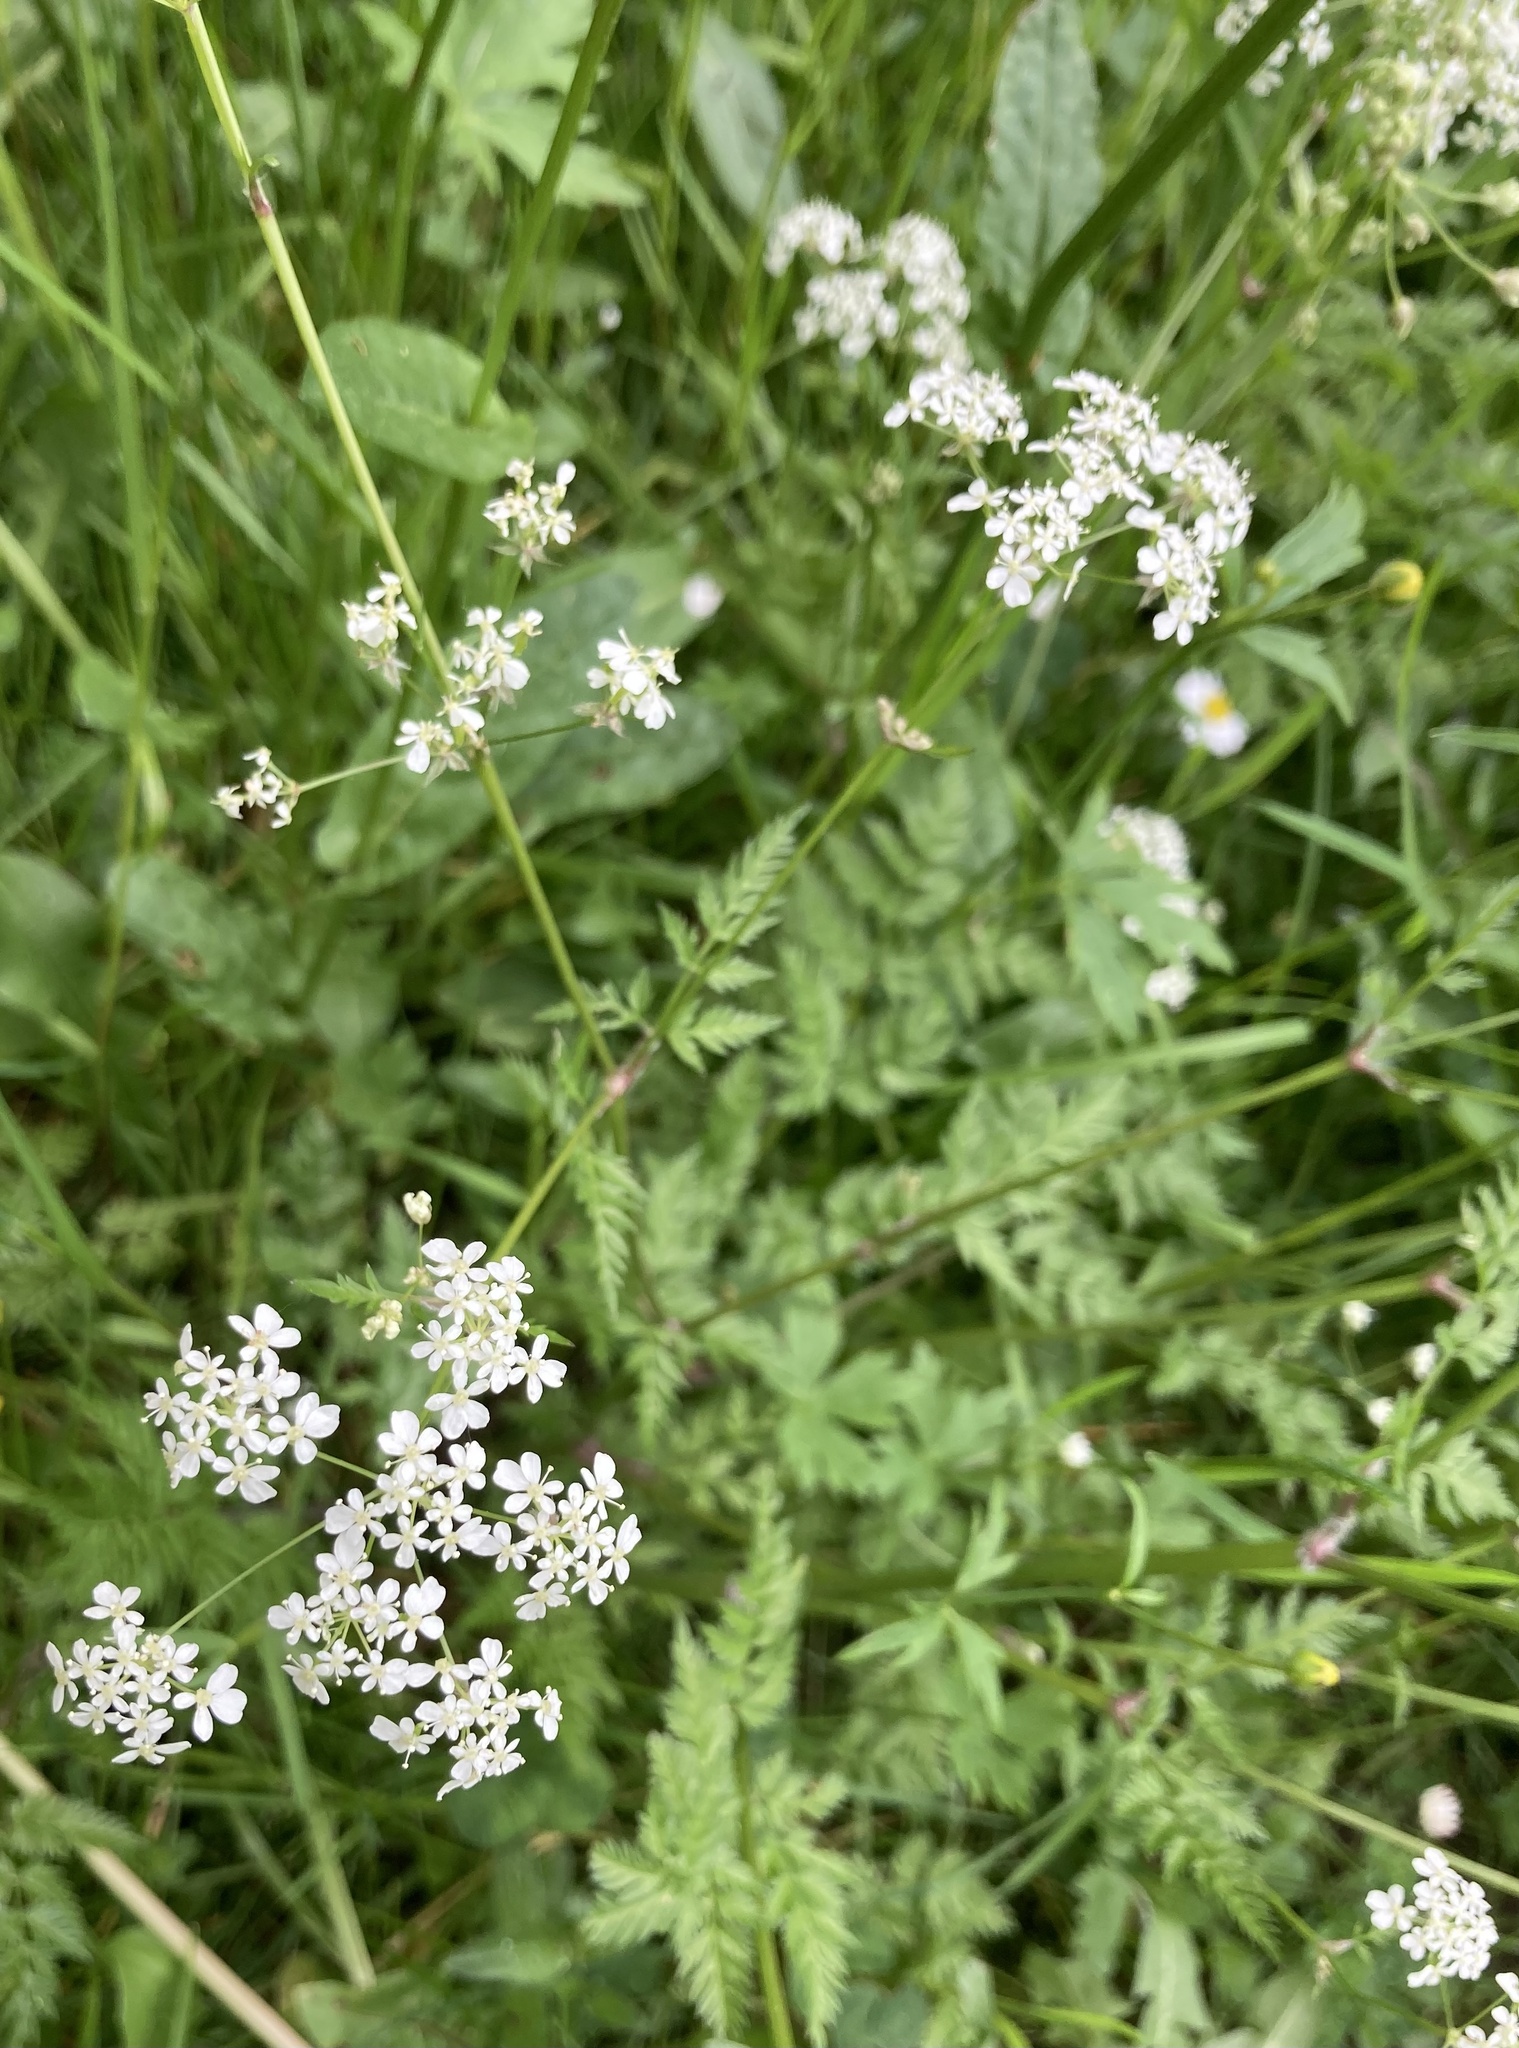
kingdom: Plantae
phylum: Tracheophyta
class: Magnoliopsida
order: Apiales
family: Apiaceae
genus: Anthriscus
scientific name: Anthriscus sylvestris
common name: Cow parsley
